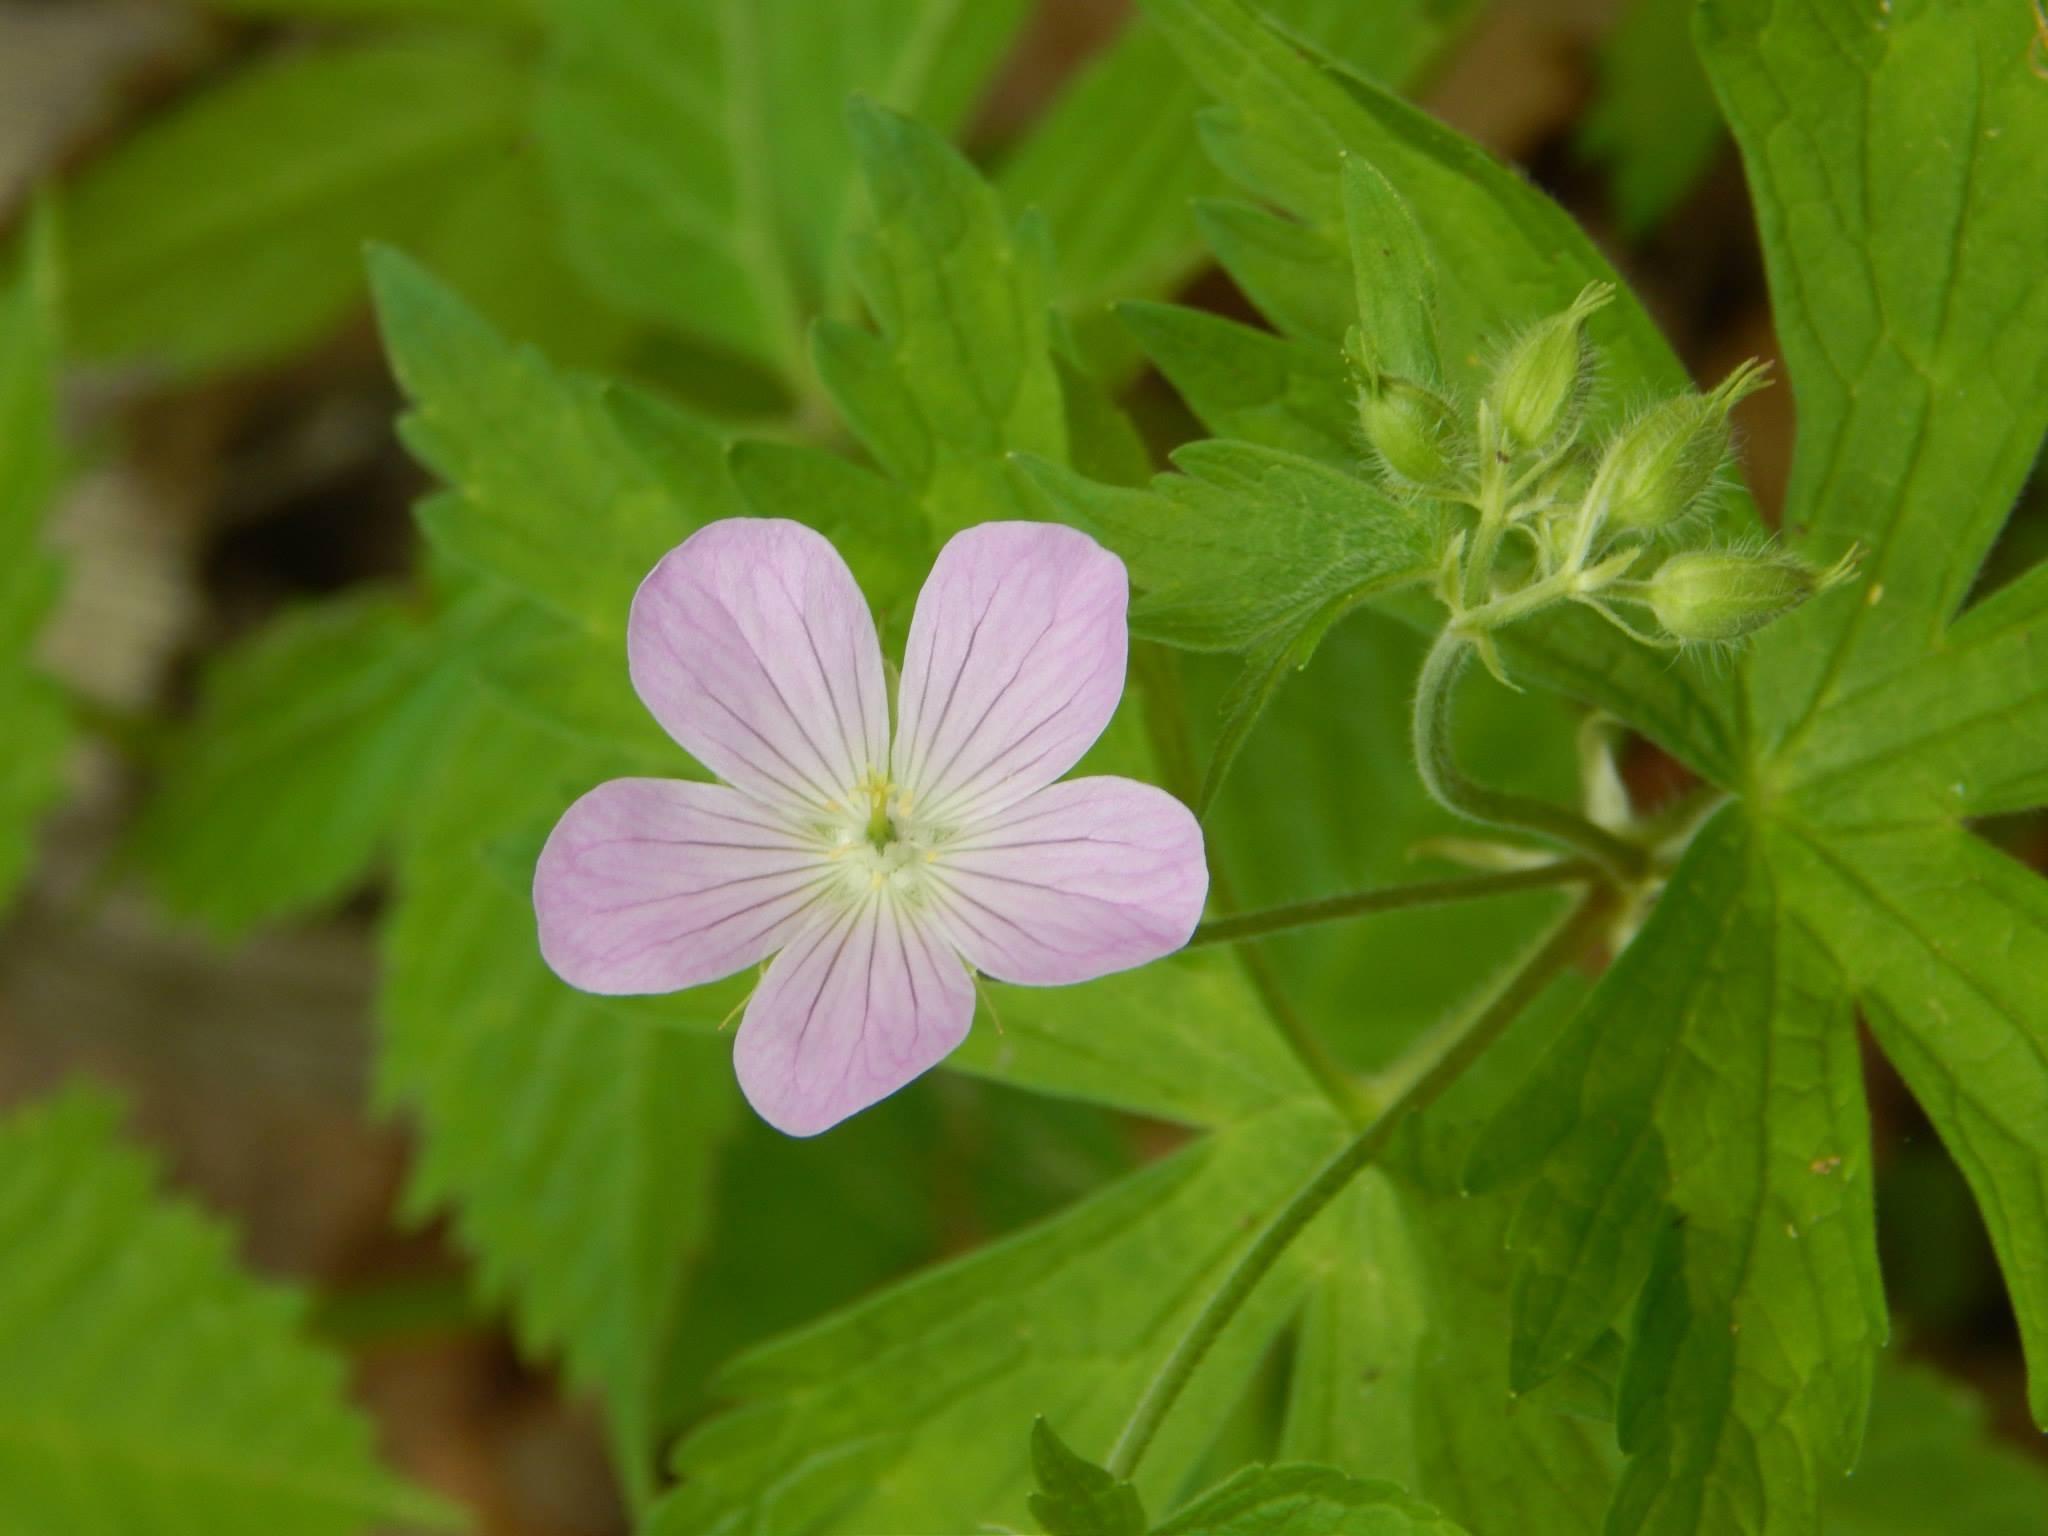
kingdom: Plantae
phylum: Tracheophyta
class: Magnoliopsida
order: Geraniales
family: Geraniaceae
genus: Geranium
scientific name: Geranium maculatum
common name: Spotted geranium
